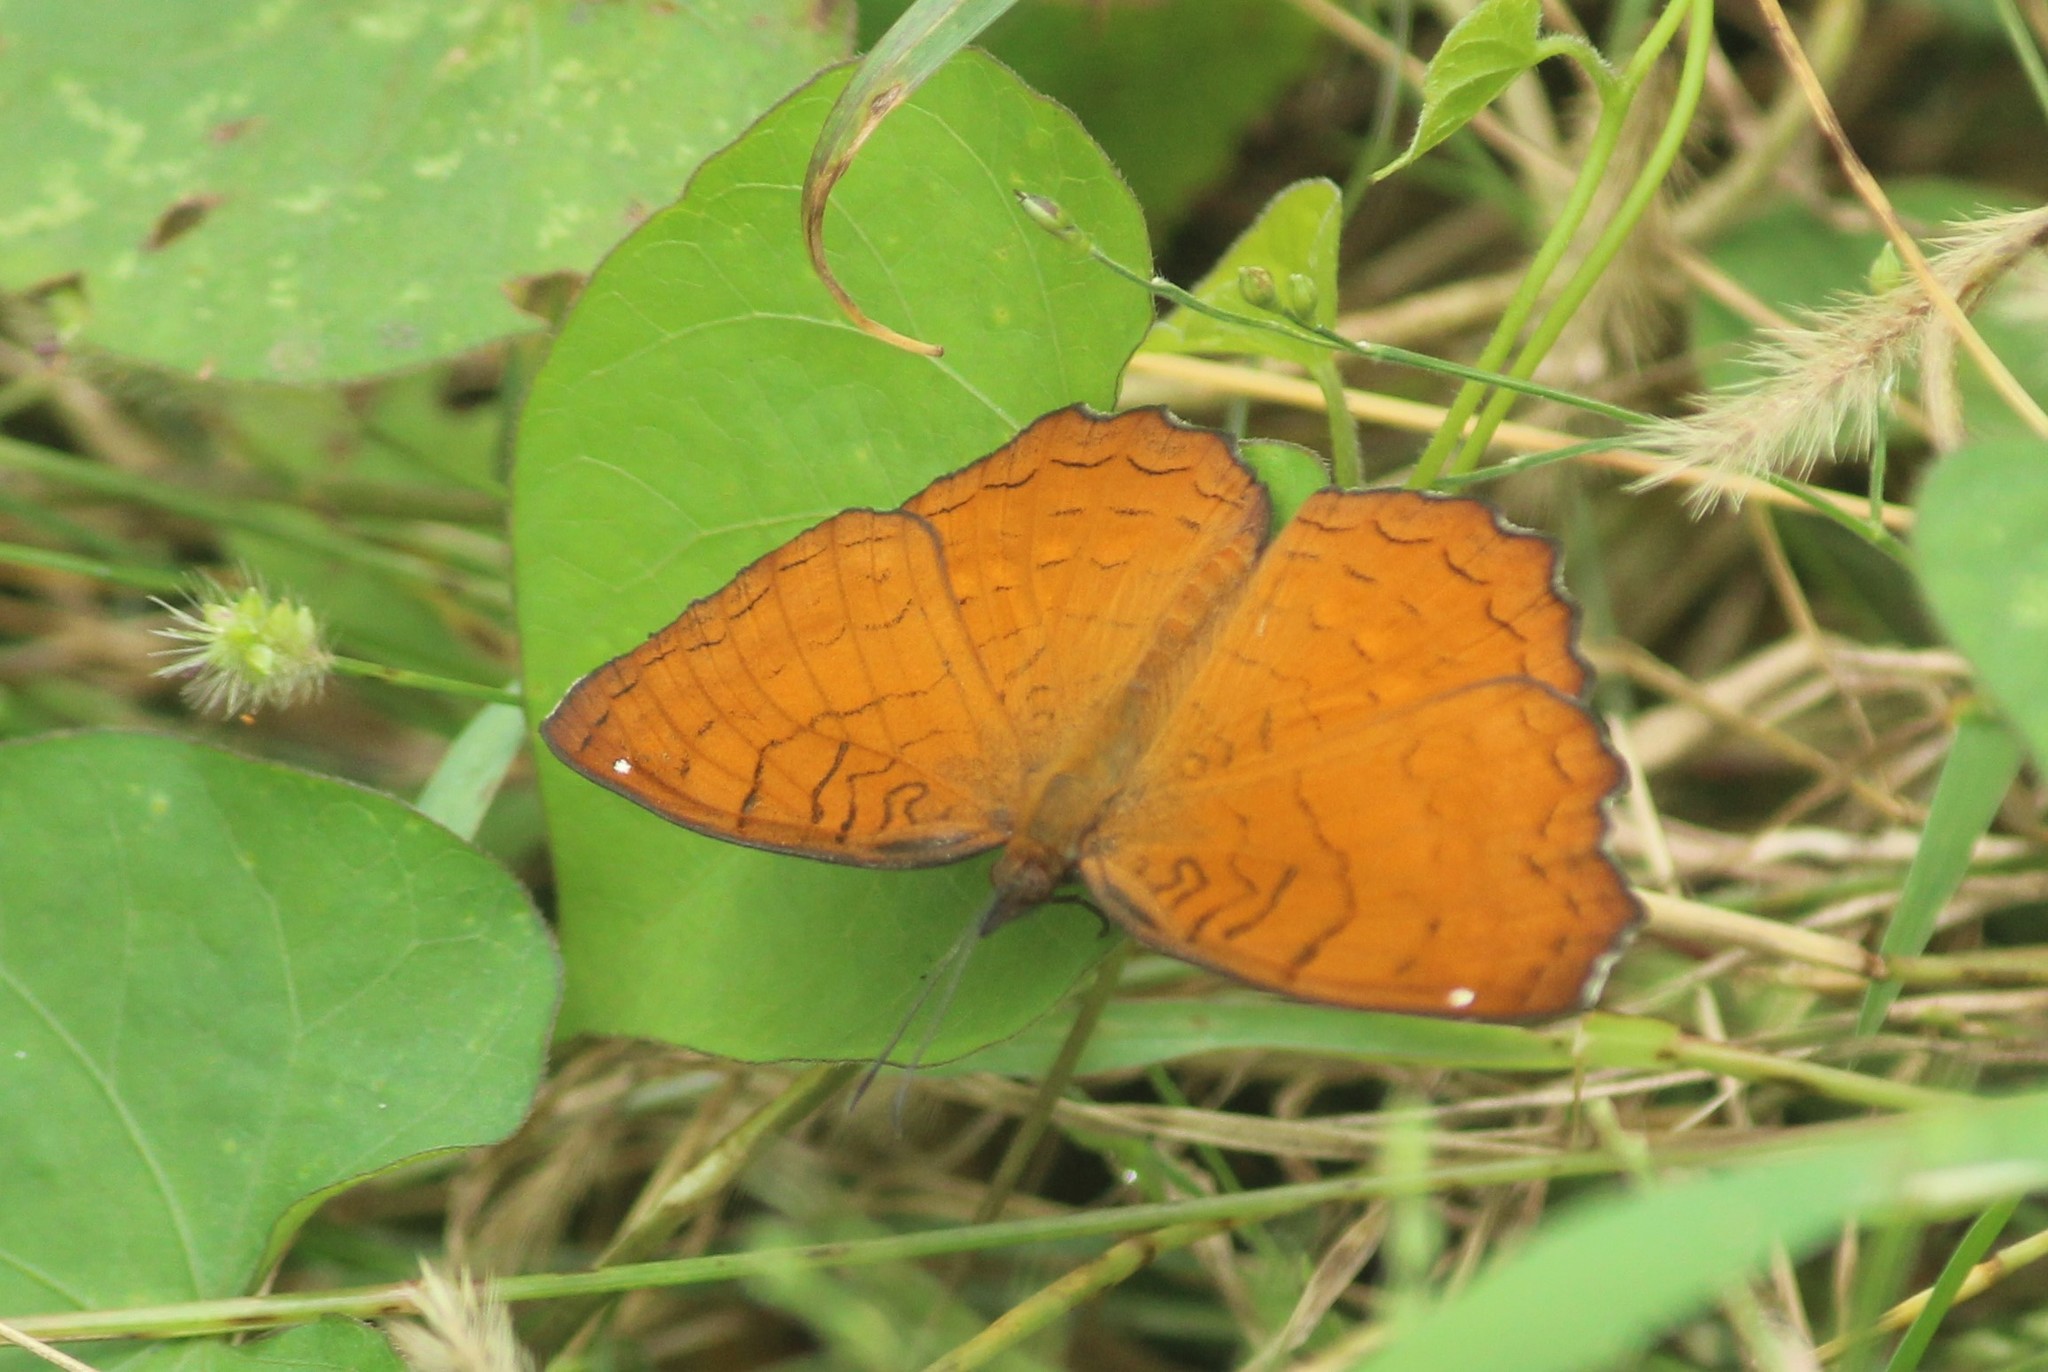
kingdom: Animalia
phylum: Arthropoda
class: Insecta
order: Lepidoptera
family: Nymphalidae
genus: Ariadne
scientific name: Ariadne ariadne
